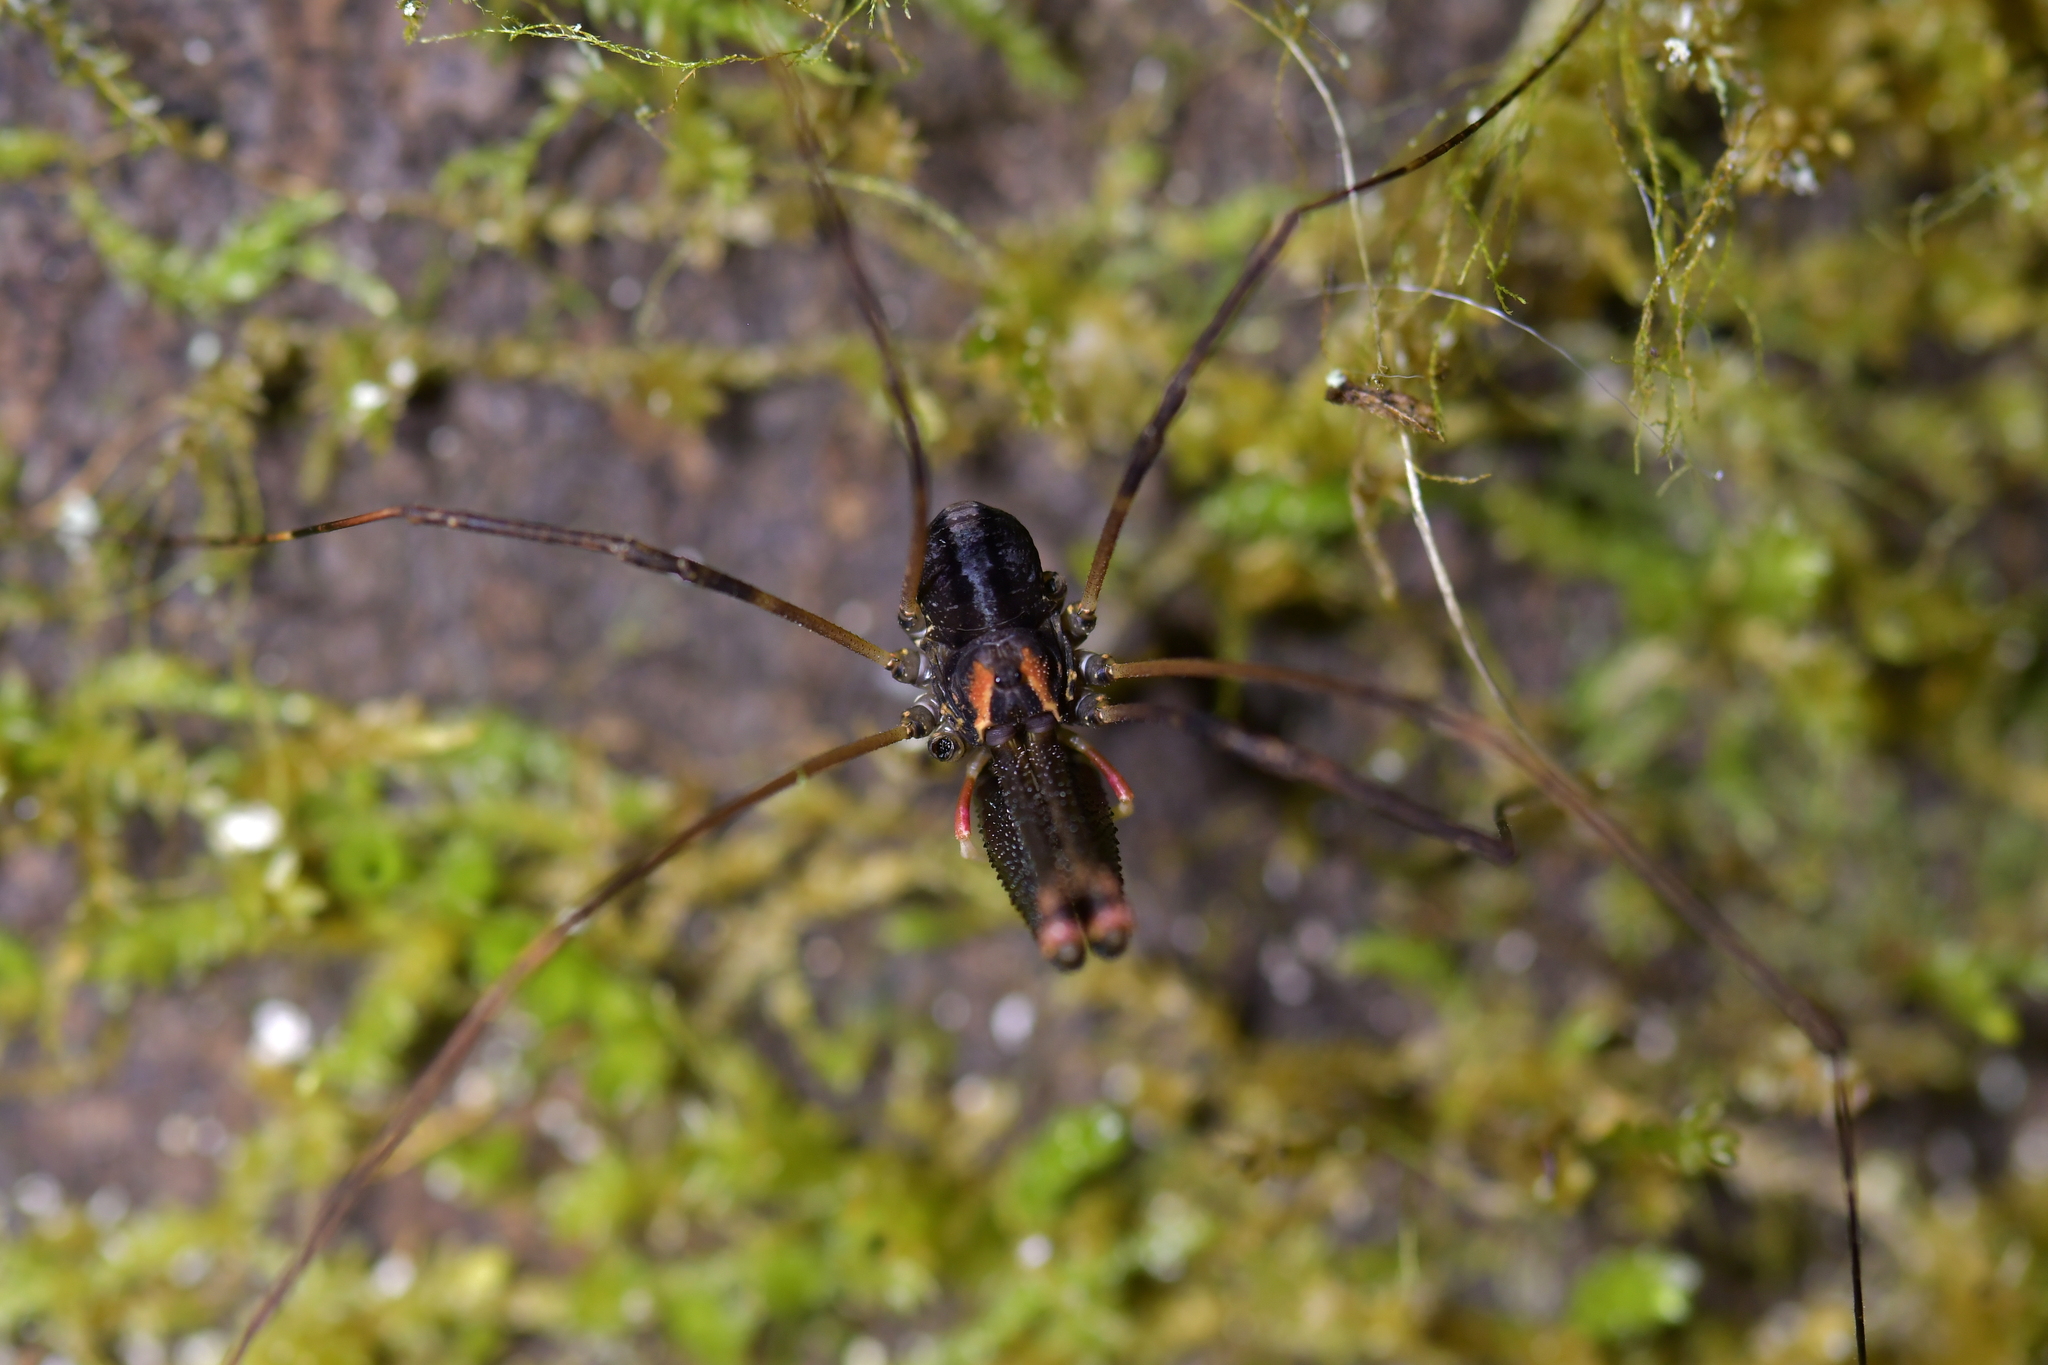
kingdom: Animalia
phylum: Arthropoda
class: Arachnida
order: Opiliones
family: Neopilionidae
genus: Forsteropsalis
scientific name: Forsteropsalis inconstans
